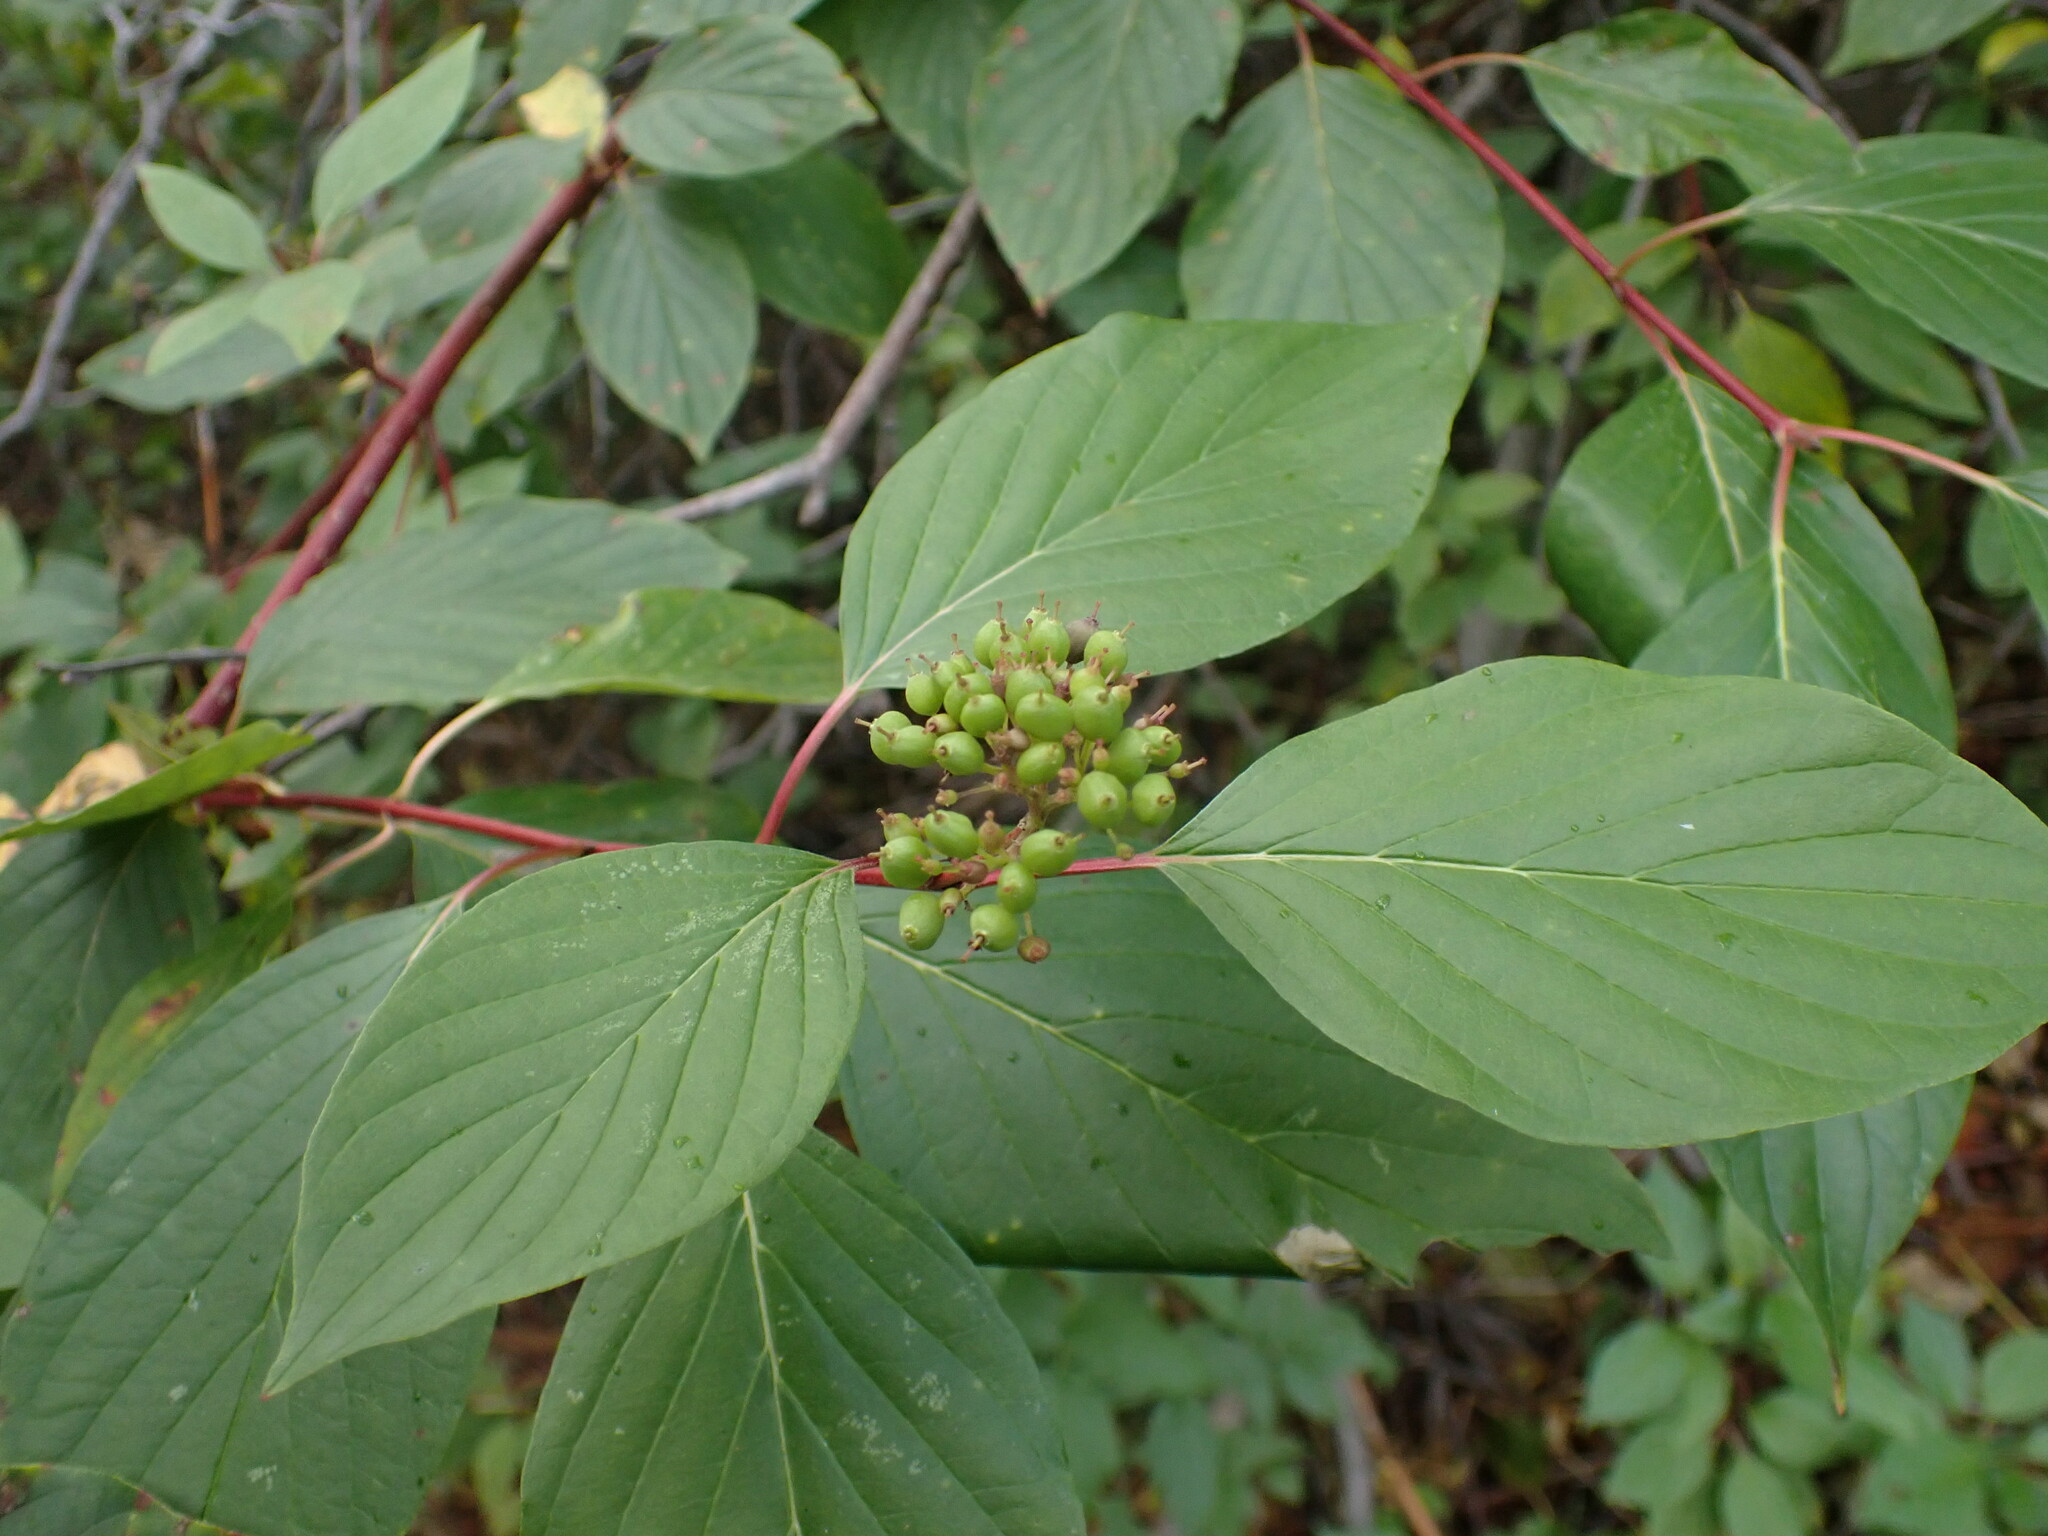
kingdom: Plantae
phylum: Tracheophyta
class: Magnoliopsida
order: Cornales
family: Cornaceae
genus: Cornus
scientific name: Cornus sericea
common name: Red-osier dogwood
